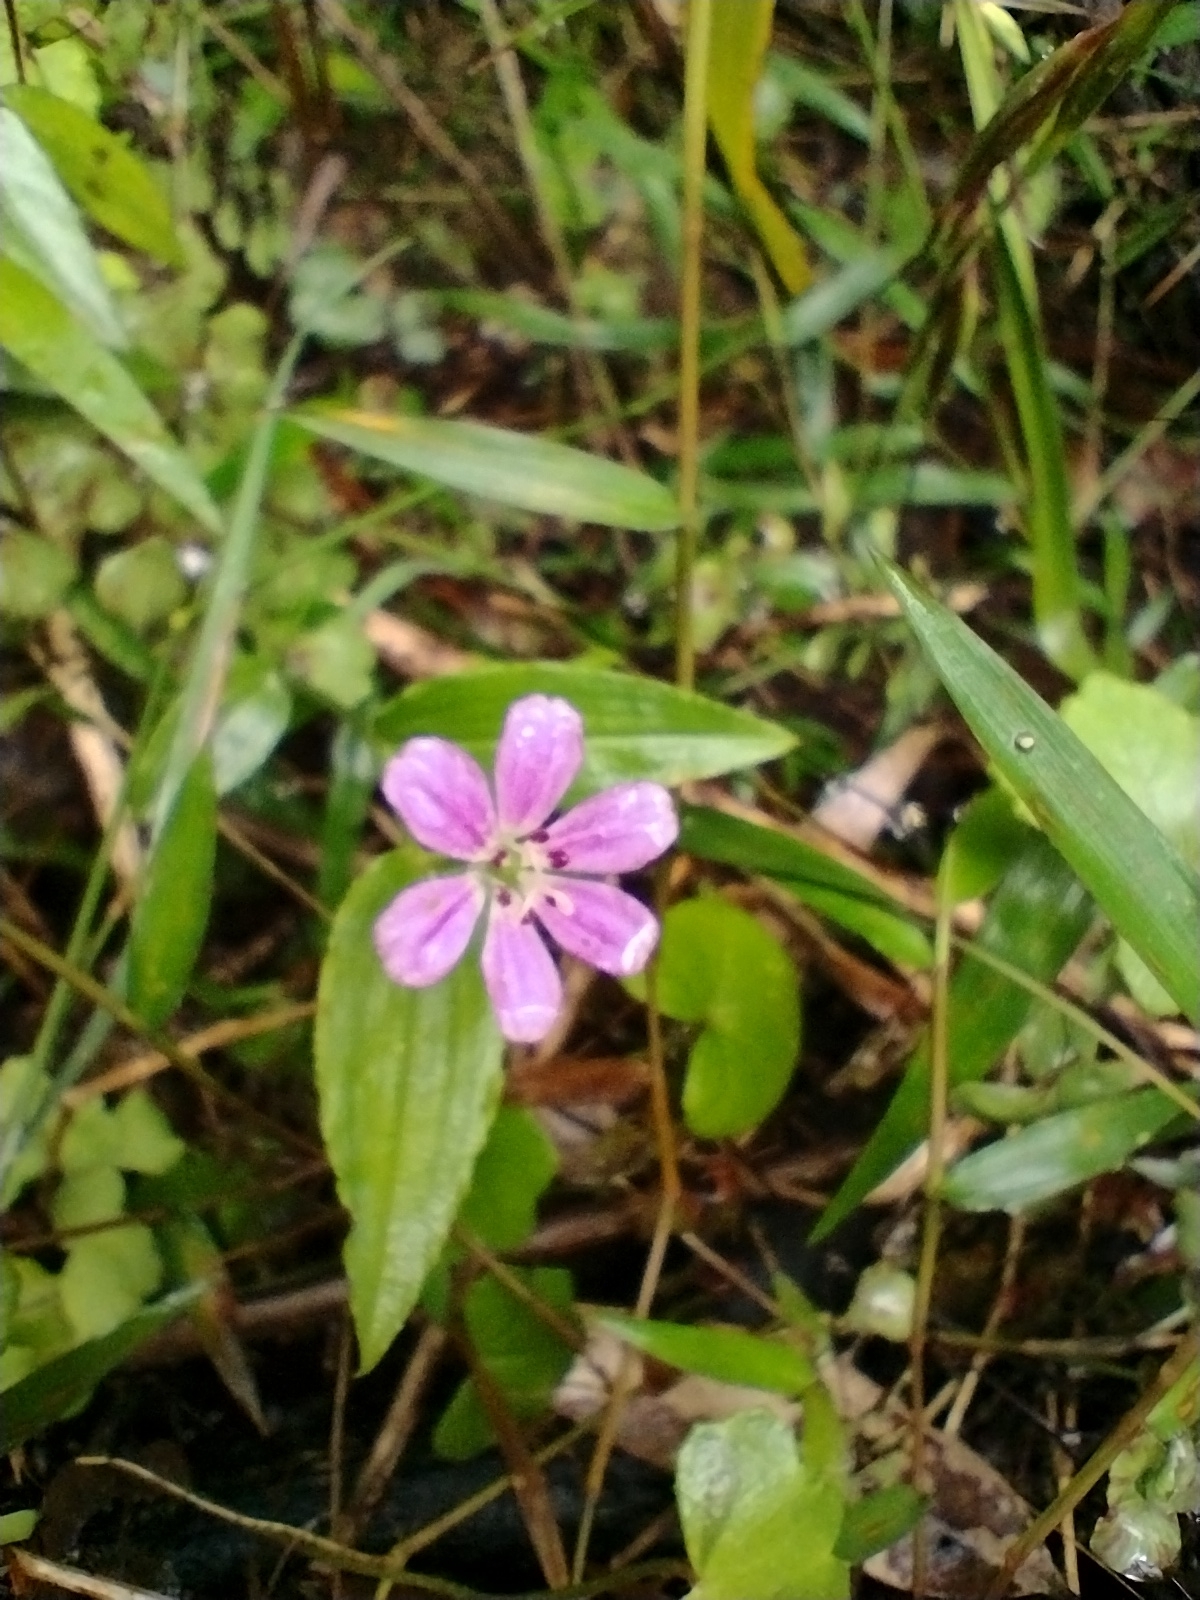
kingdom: Plantae
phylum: Tracheophyta
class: Liliopsida
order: Liliales
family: Colchicaceae
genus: Schelhammera
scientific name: Schelhammera undulata
